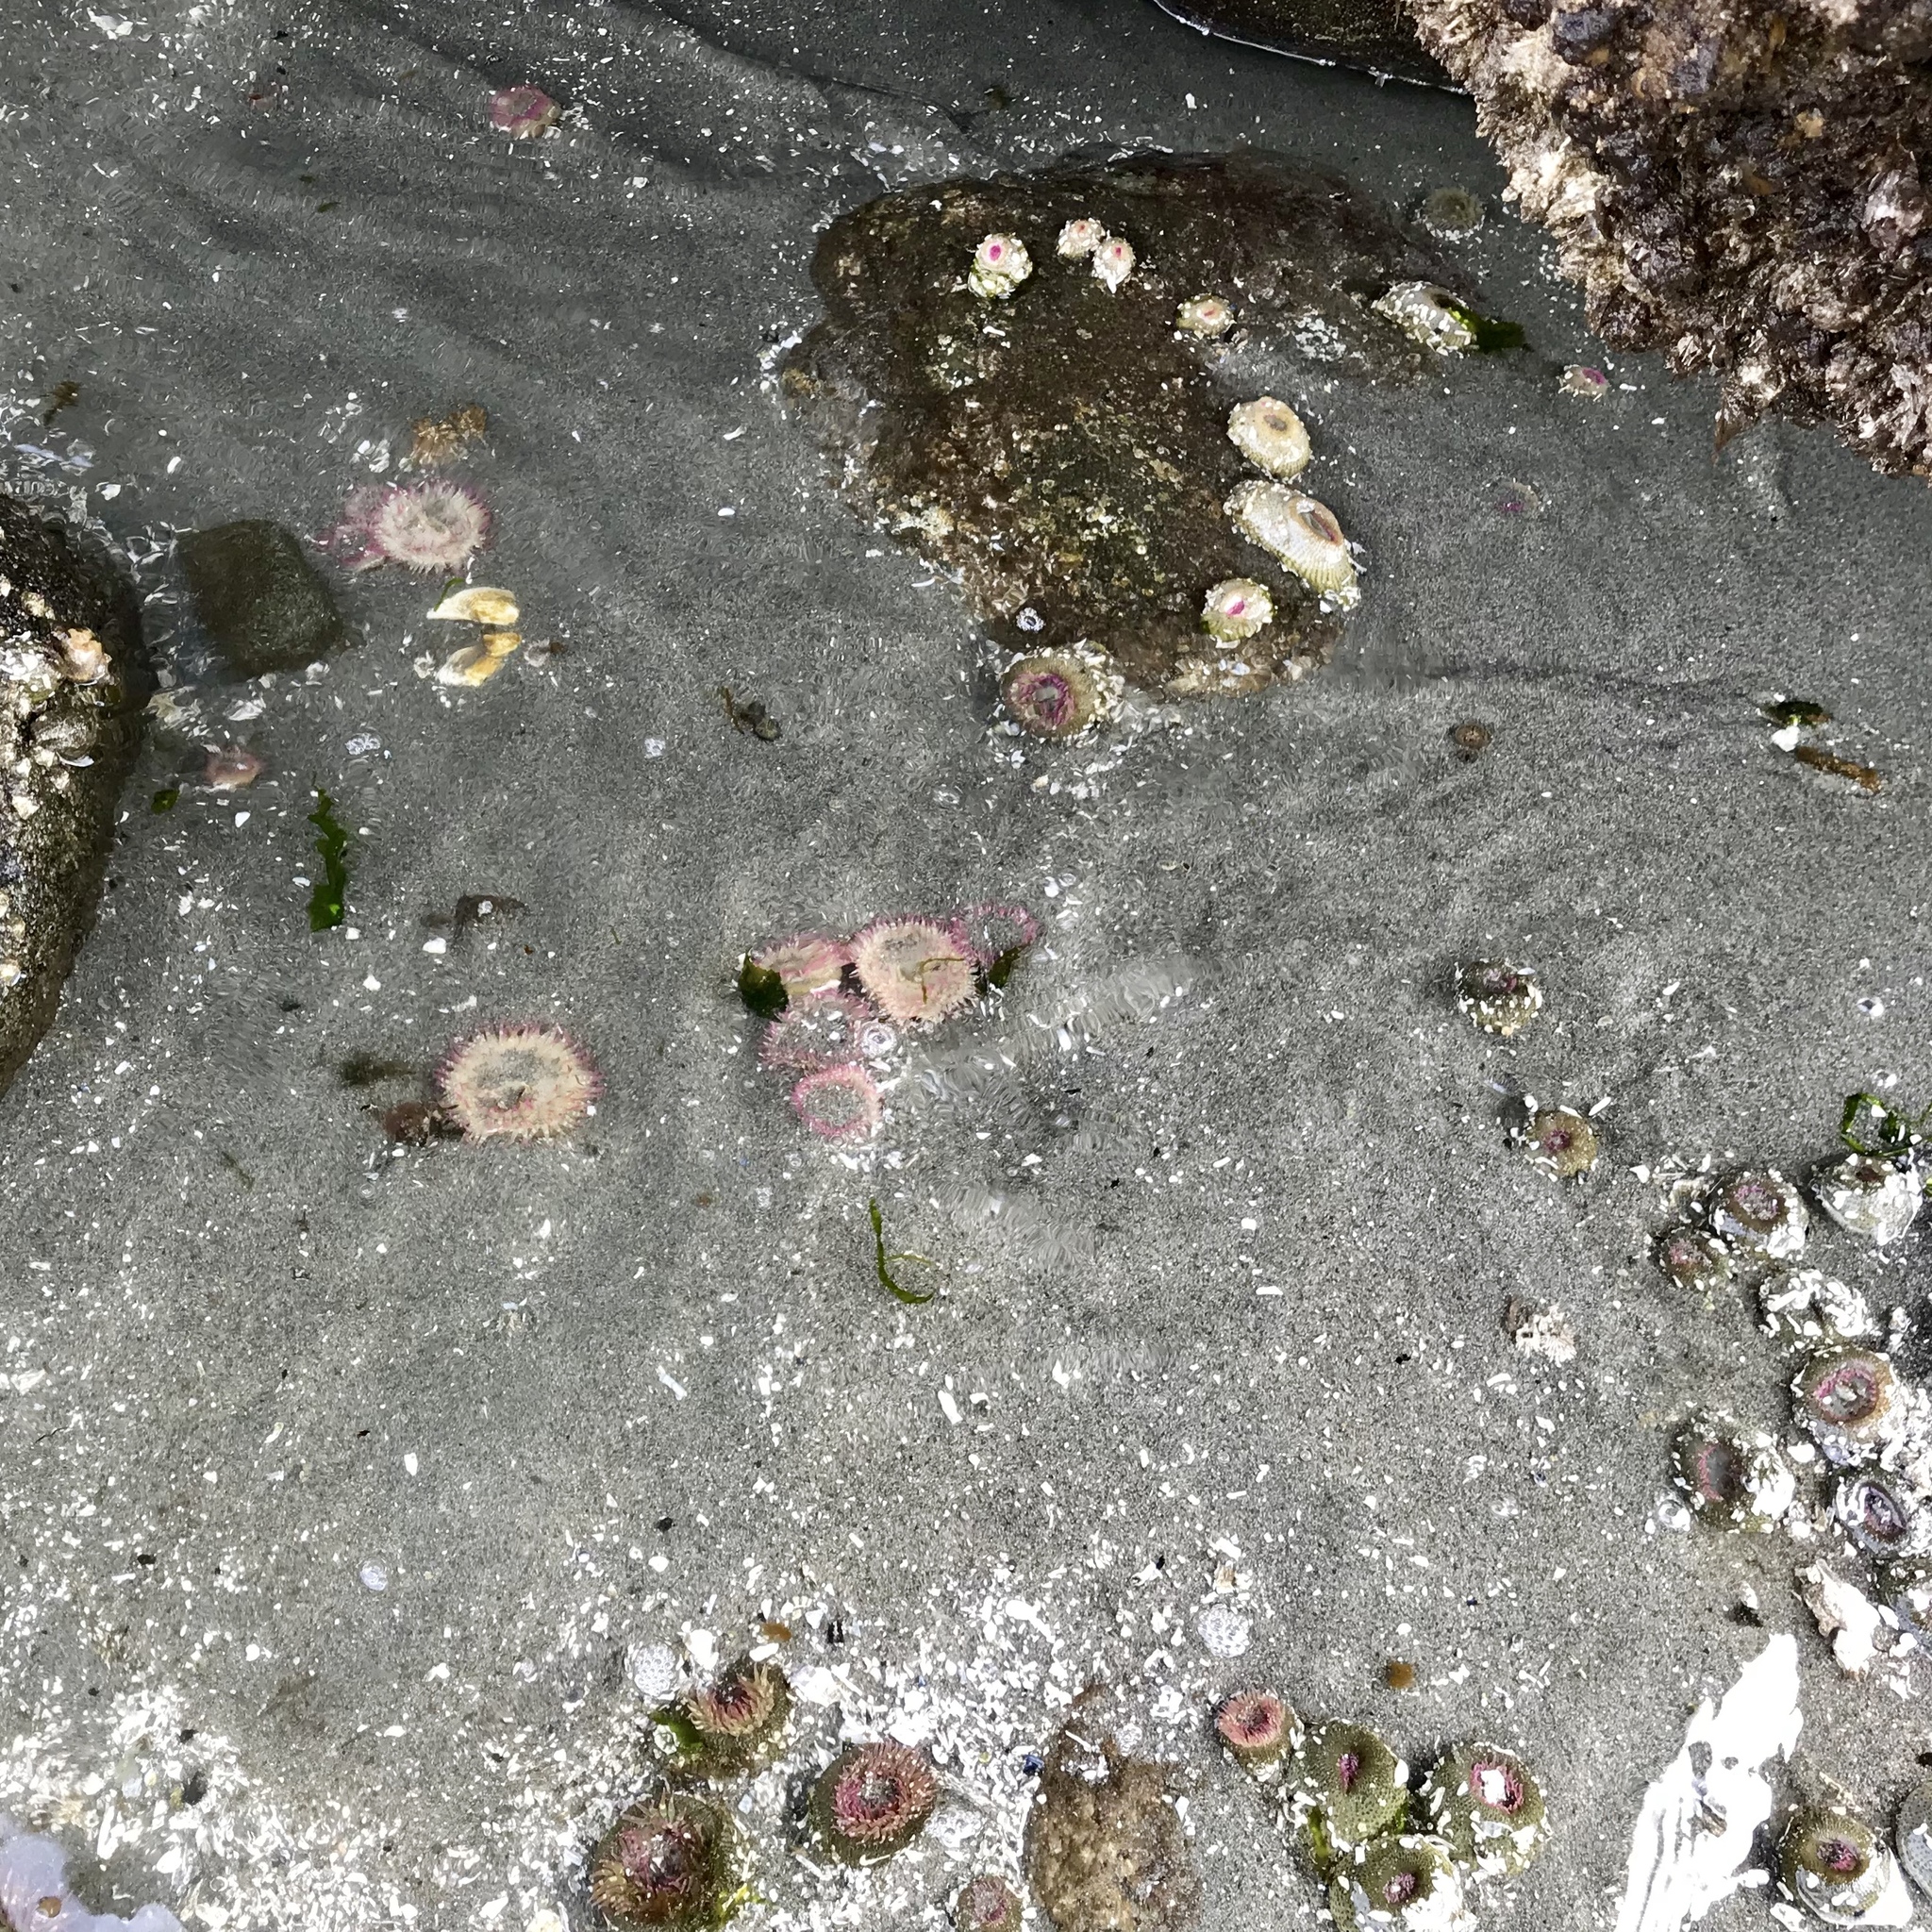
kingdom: Animalia
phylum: Cnidaria
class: Anthozoa
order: Actiniaria
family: Actiniidae
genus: Anthopleura
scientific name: Anthopleura elegantissima
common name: Clonal anemone
